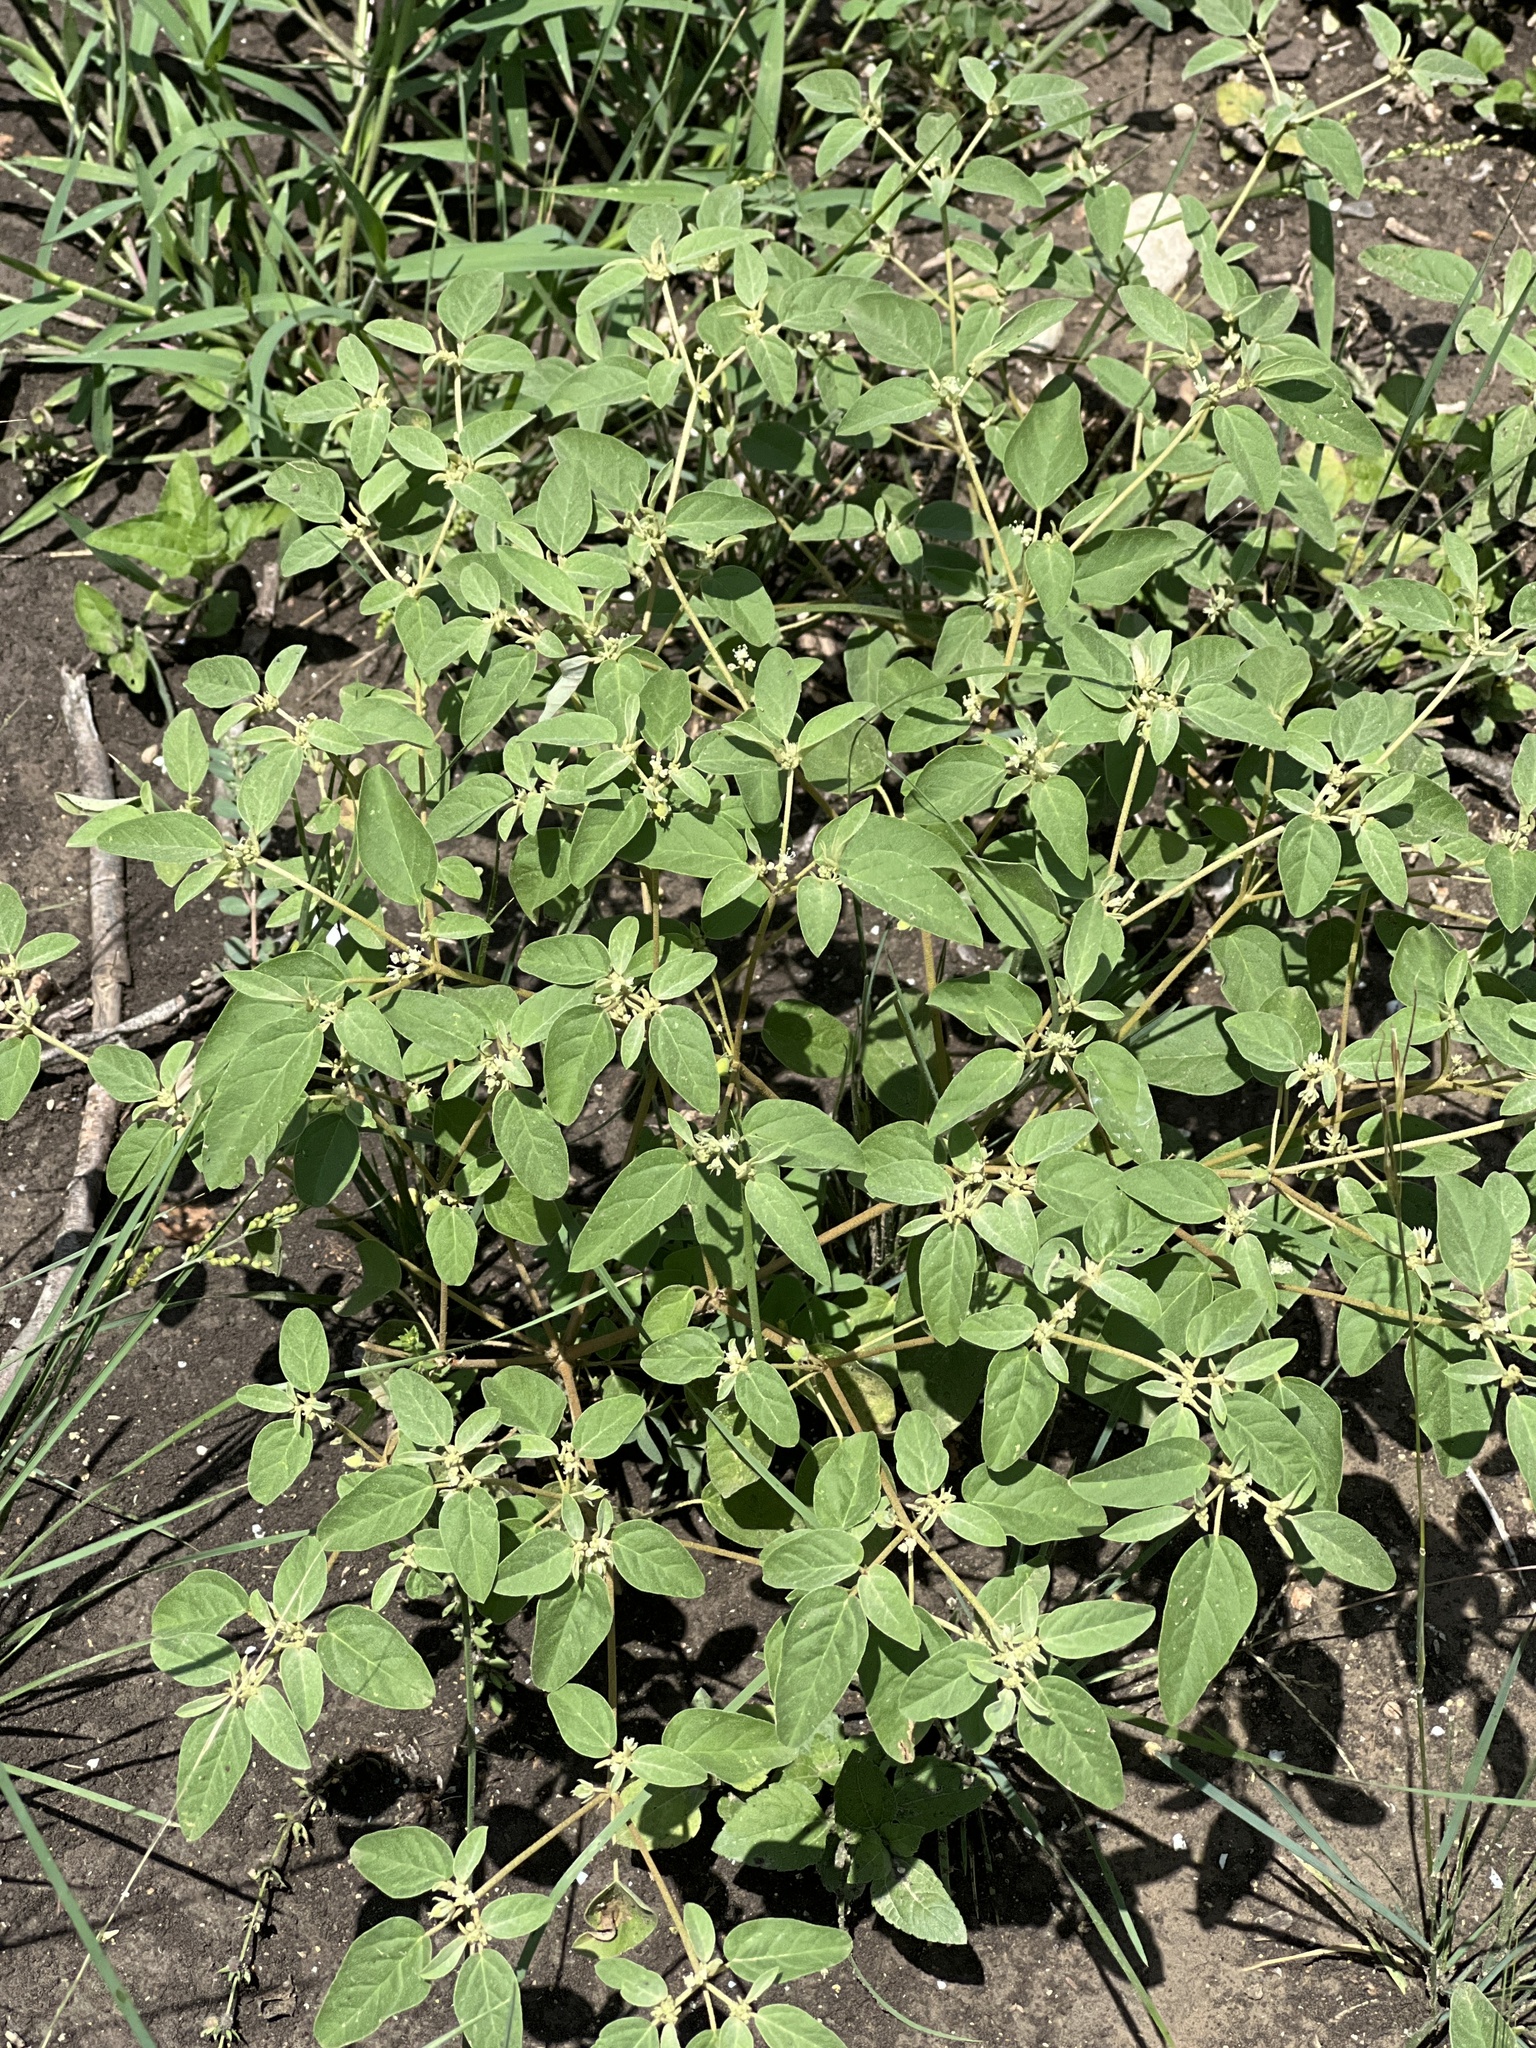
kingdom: Plantae
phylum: Tracheophyta
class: Magnoliopsida
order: Malpighiales
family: Euphorbiaceae
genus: Croton
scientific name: Croton monanthogynus
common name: One-seed croton
